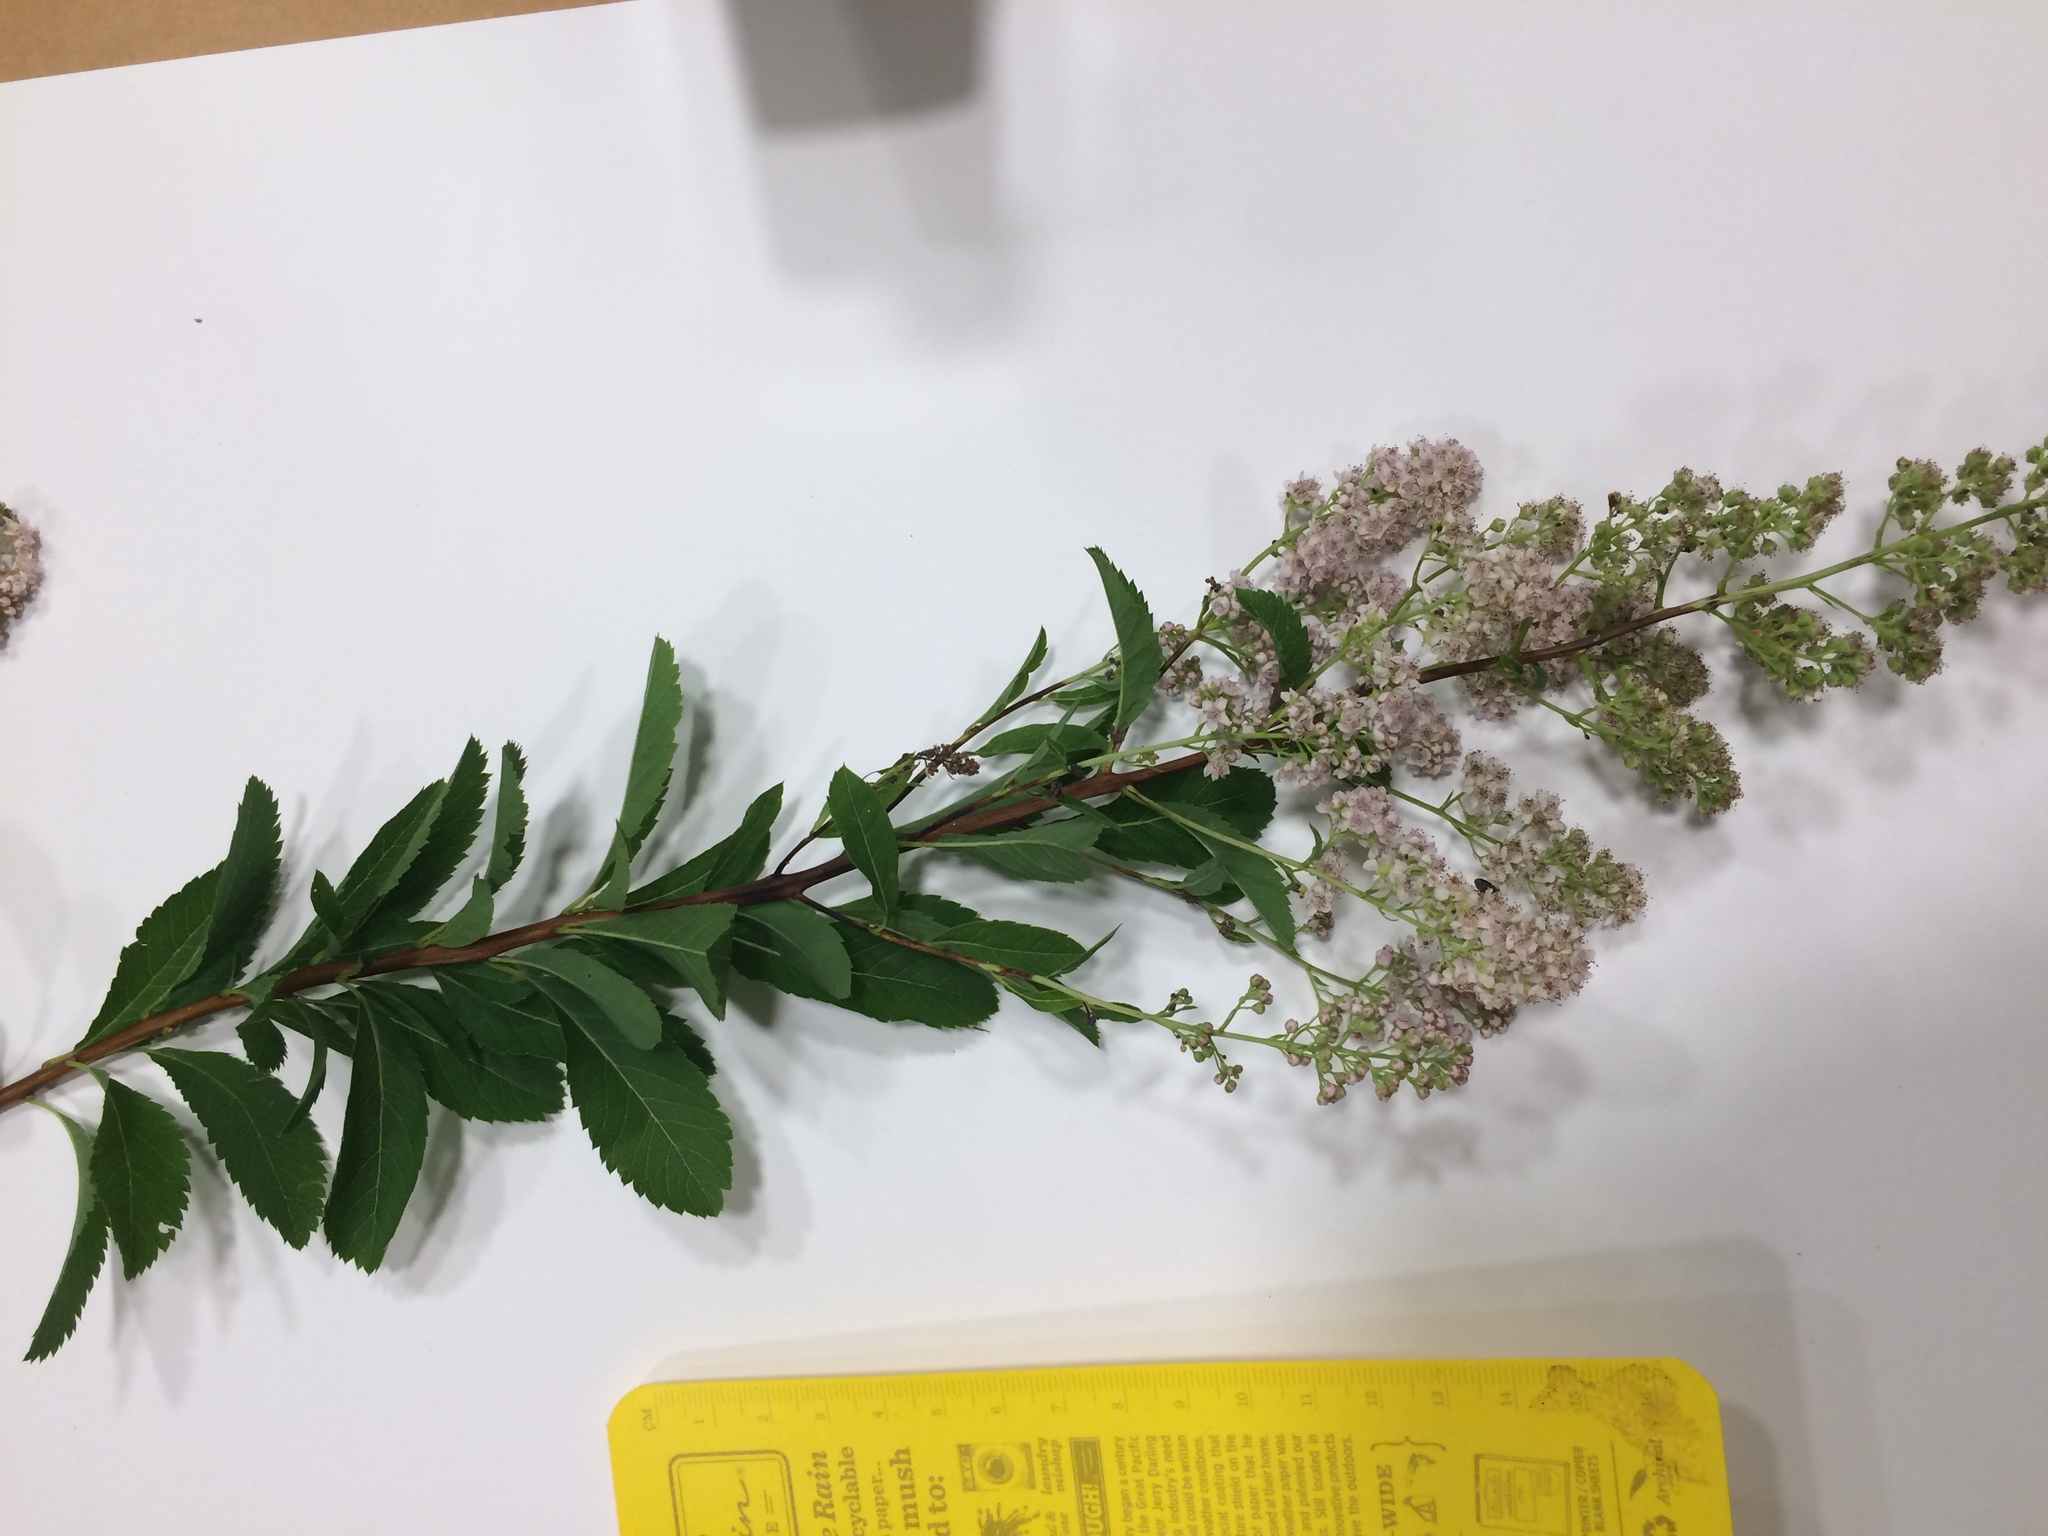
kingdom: Plantae
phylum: Tracheophyta
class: Magnoliopsida
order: Rosales
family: Rosaceae
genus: Spiraea
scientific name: Spiraea alba
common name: Pale bridewort
